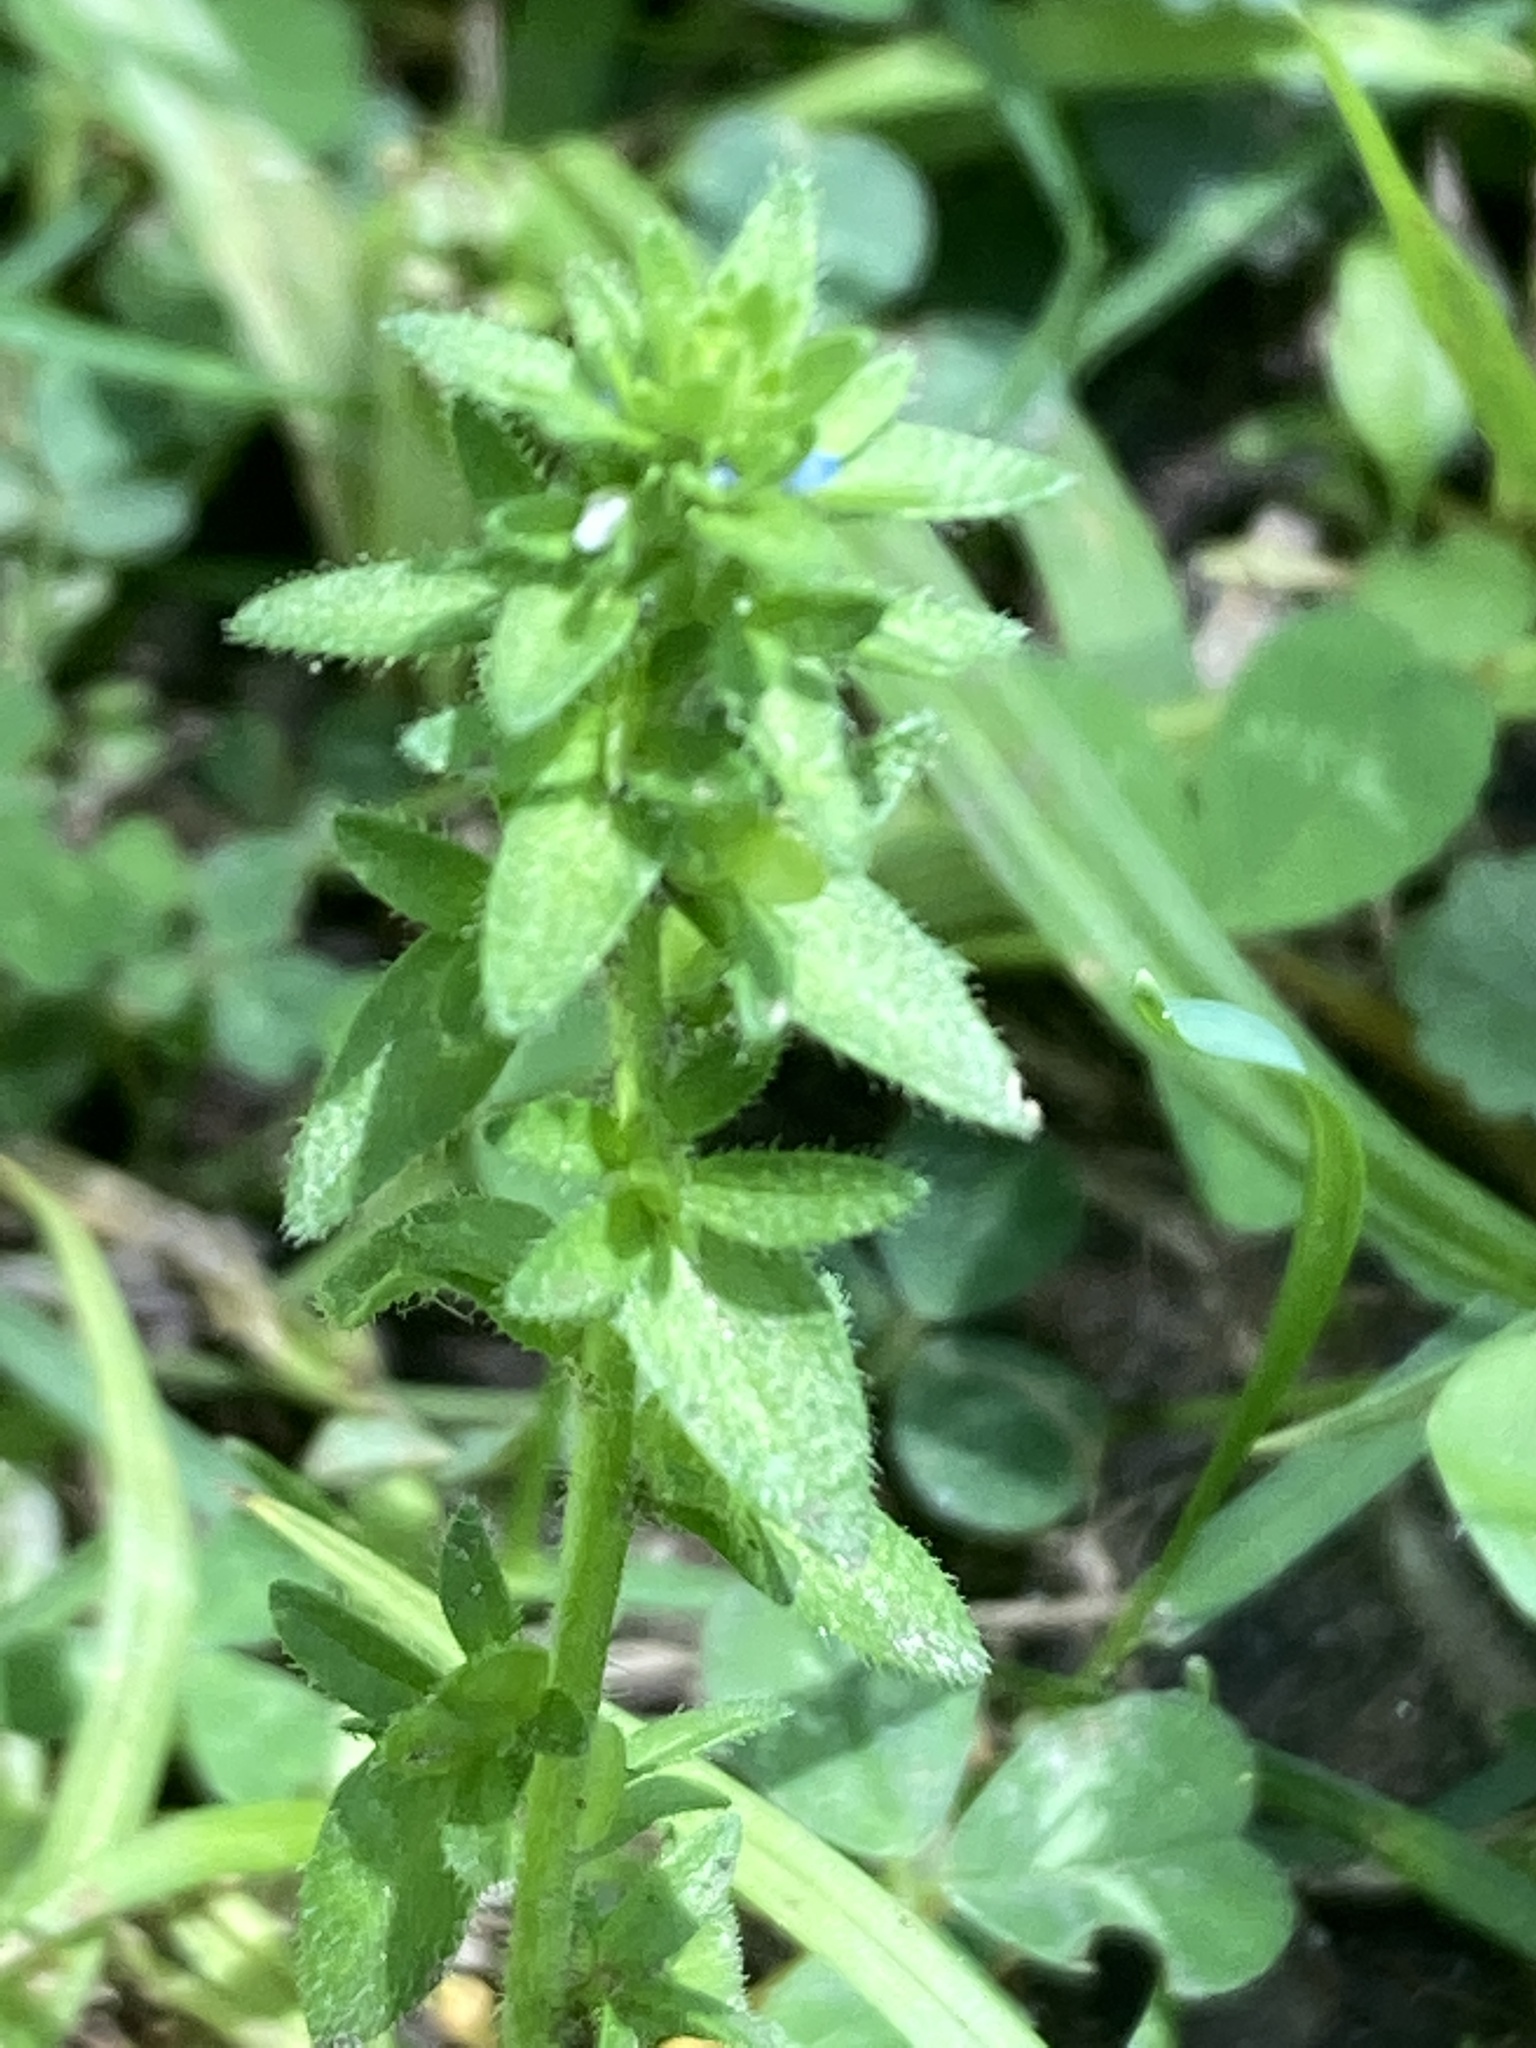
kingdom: Plantae
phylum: Tracheophyta
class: Magnoliopsida
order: Lamiales
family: Plantaginaceae
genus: Veronica
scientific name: Veronica arvensis
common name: Corn speedwell
